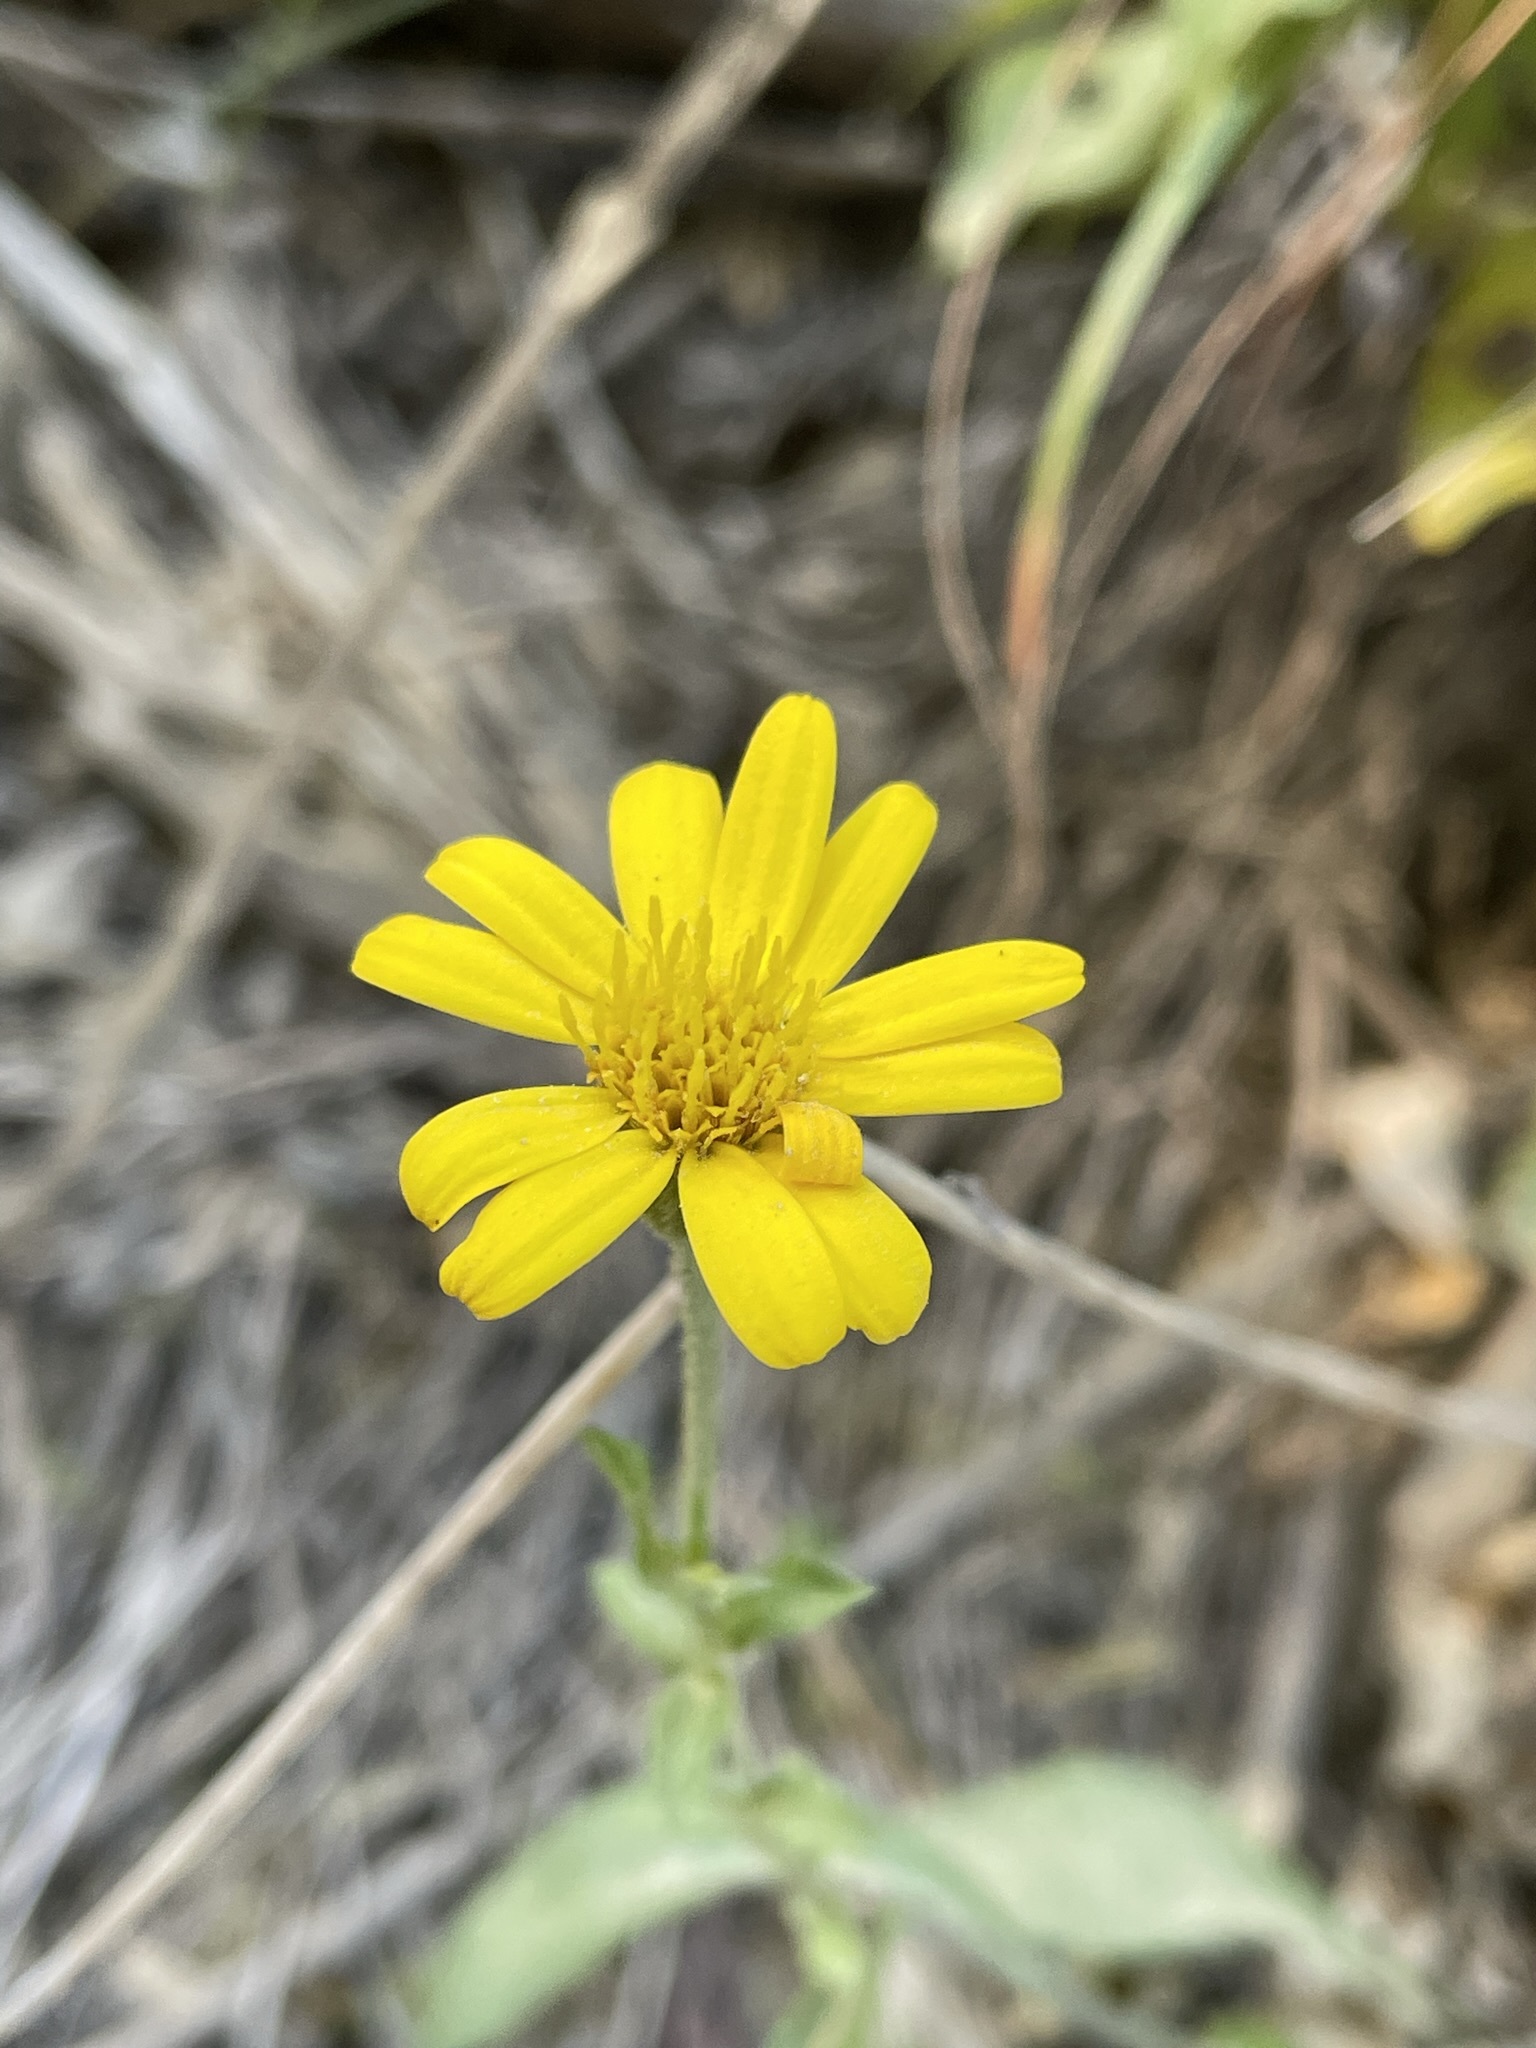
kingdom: Plantae
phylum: Tracheophyta
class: Magnoliopsida
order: Asterales
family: Asteraceae
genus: Chrysopsis
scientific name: Chrysopsis mariana
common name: Maryland golden-aster
